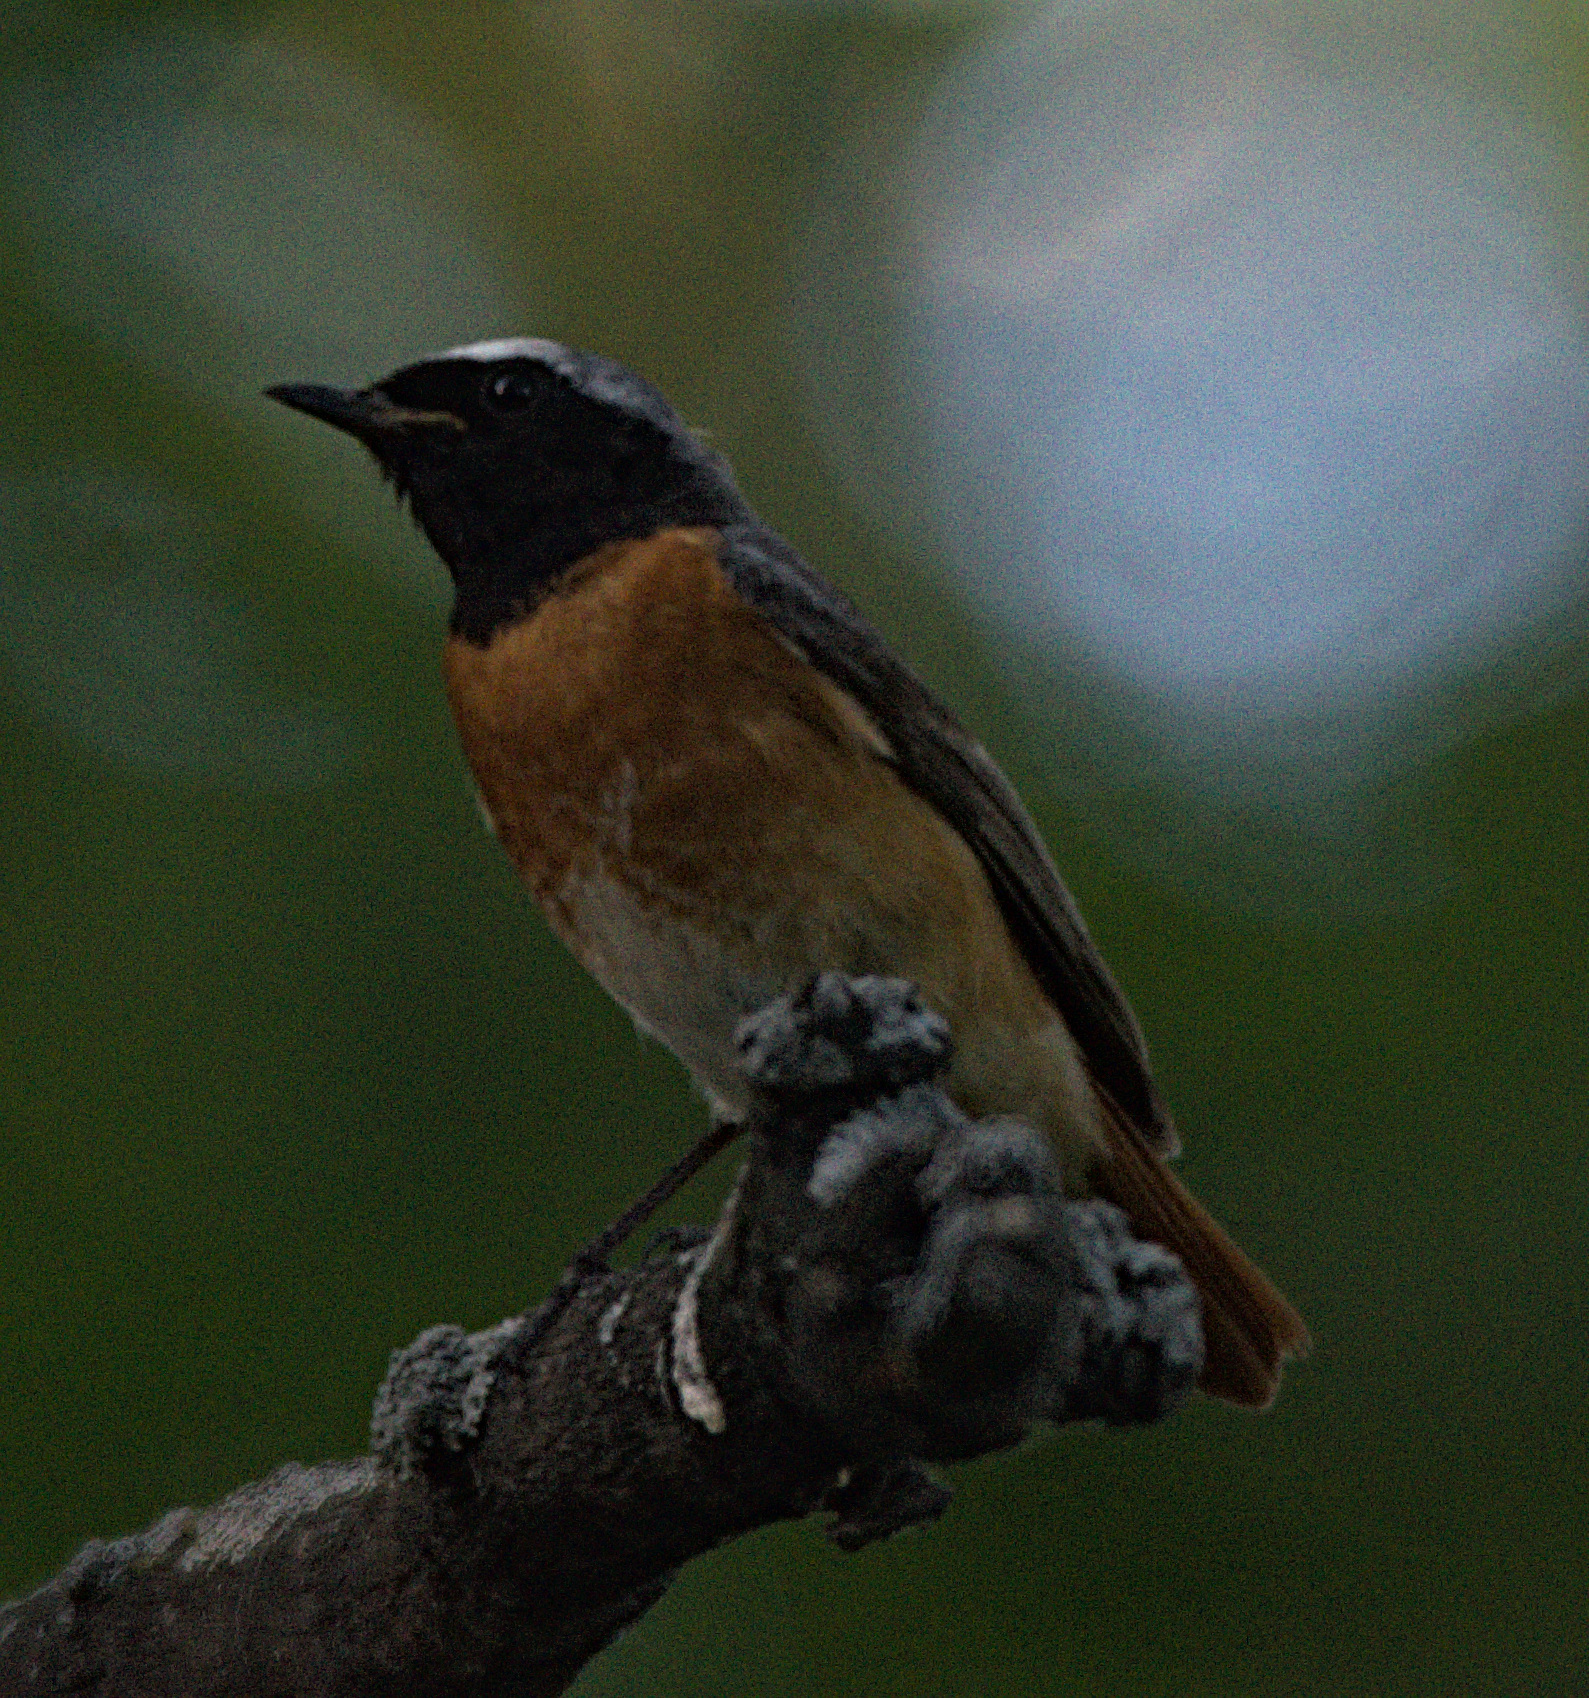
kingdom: Animalia
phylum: Chordata
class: Aves
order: Passeriformes
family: Muscicapidae
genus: Phoenicurus
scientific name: Phoenicurus phoenicurus
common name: Common redstart
